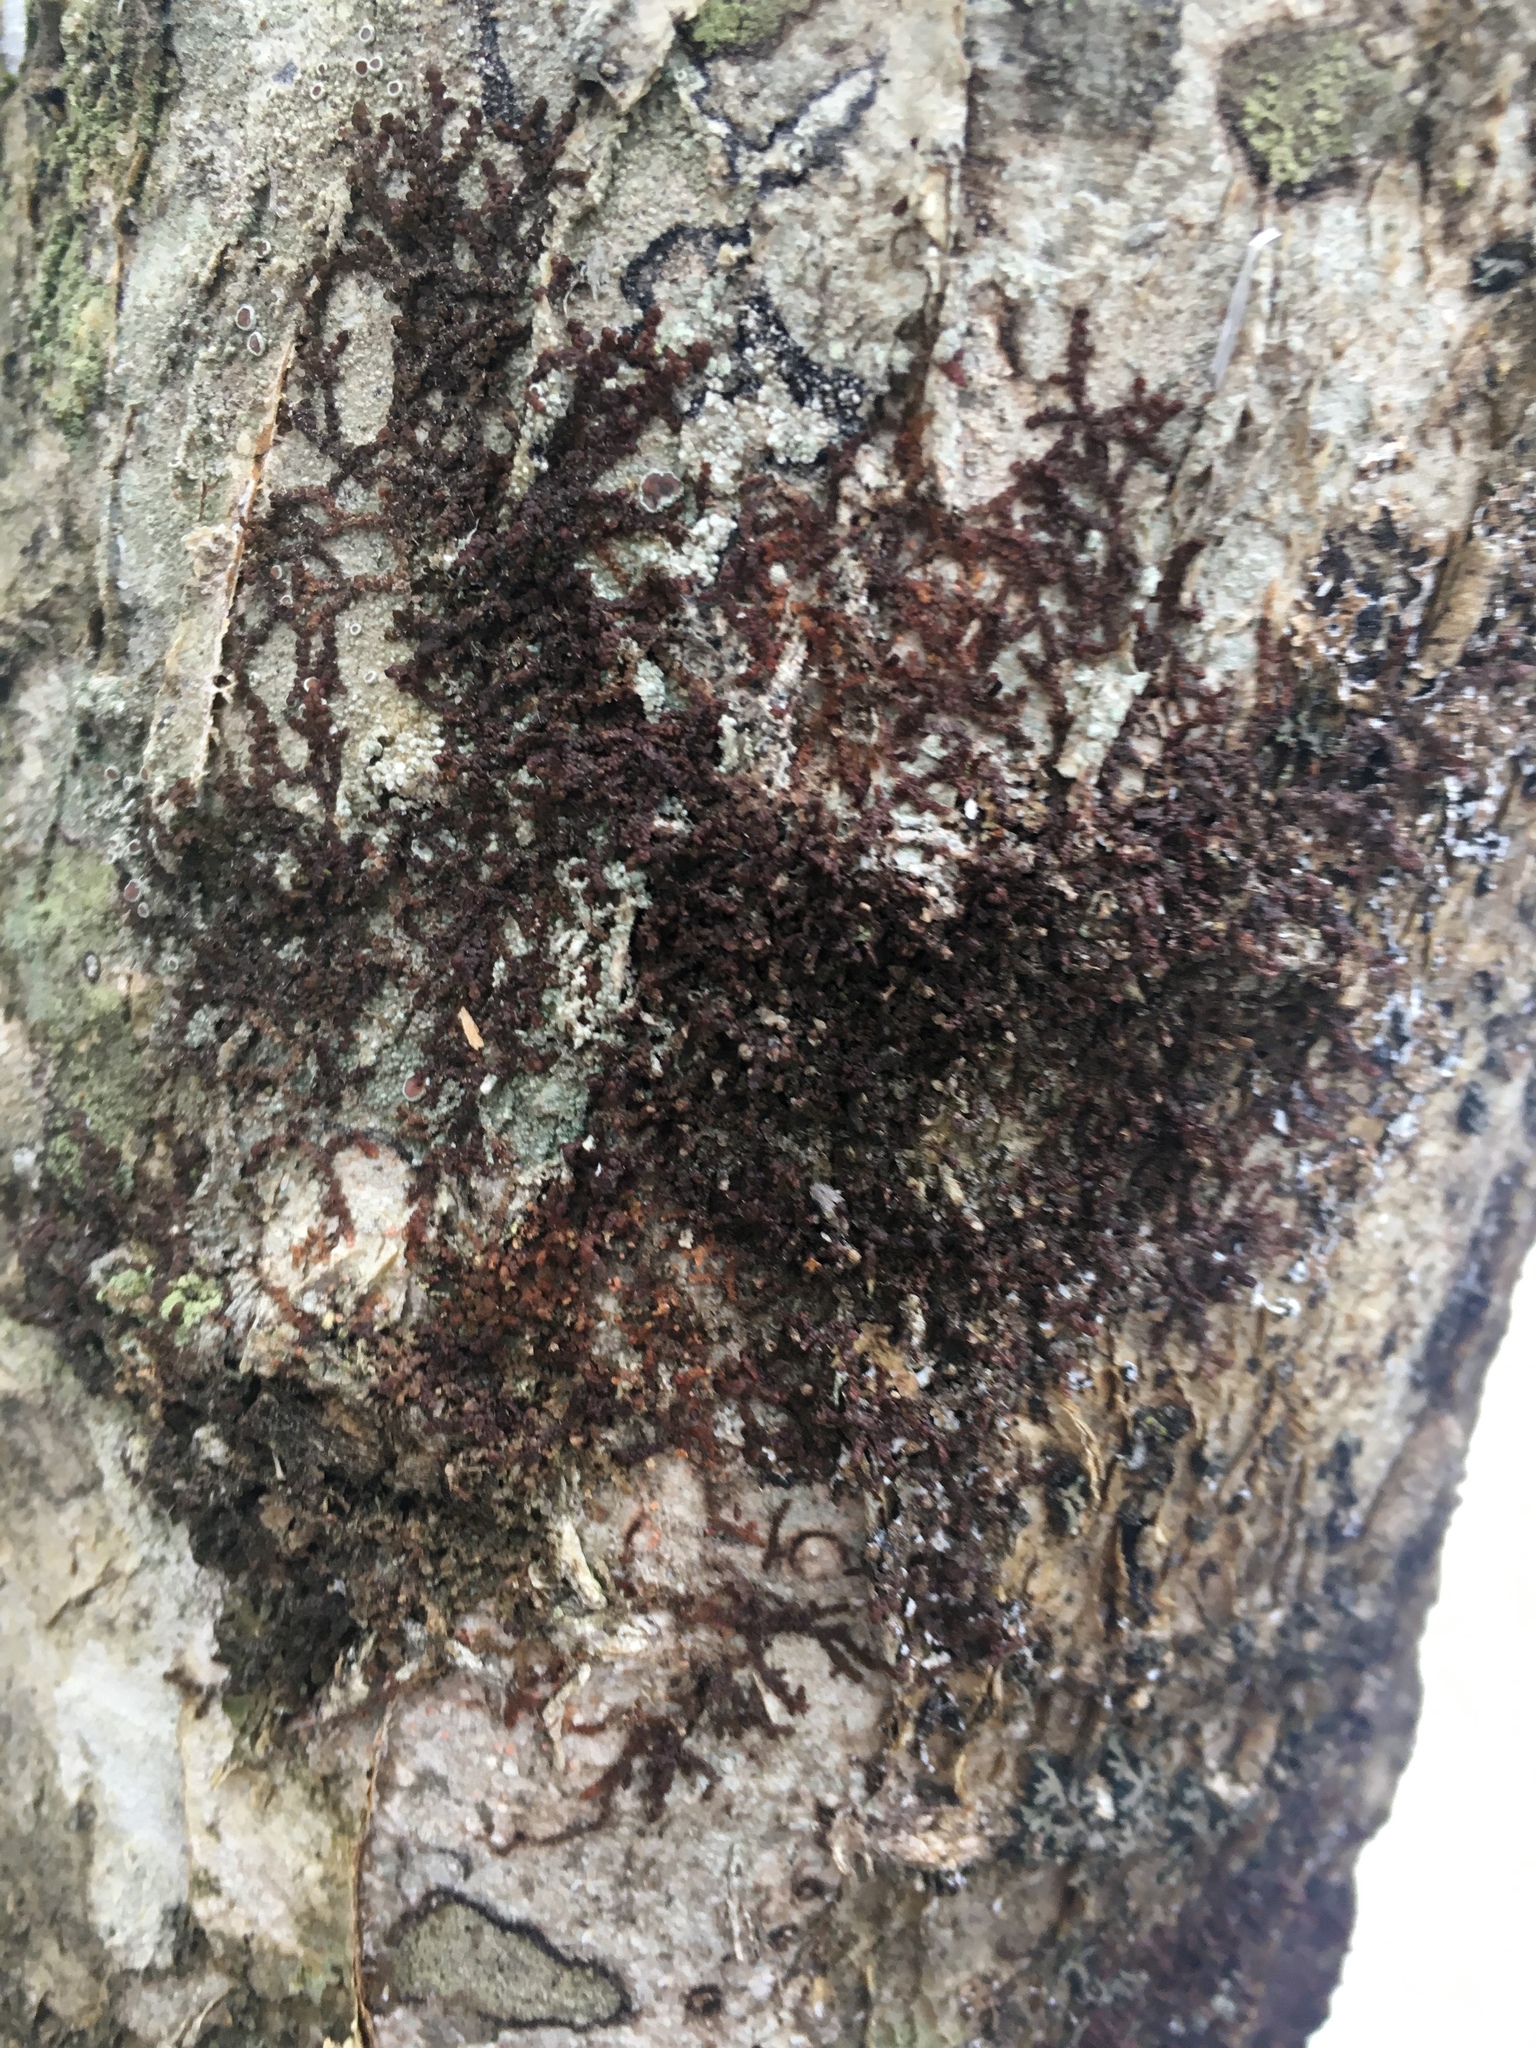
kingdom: Plantae
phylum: Marchantiophyta
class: Jungermanniopsida
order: Porellales
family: Frullaniaceae
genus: Frullania
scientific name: Frullania eboracensis
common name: New york scalewort
